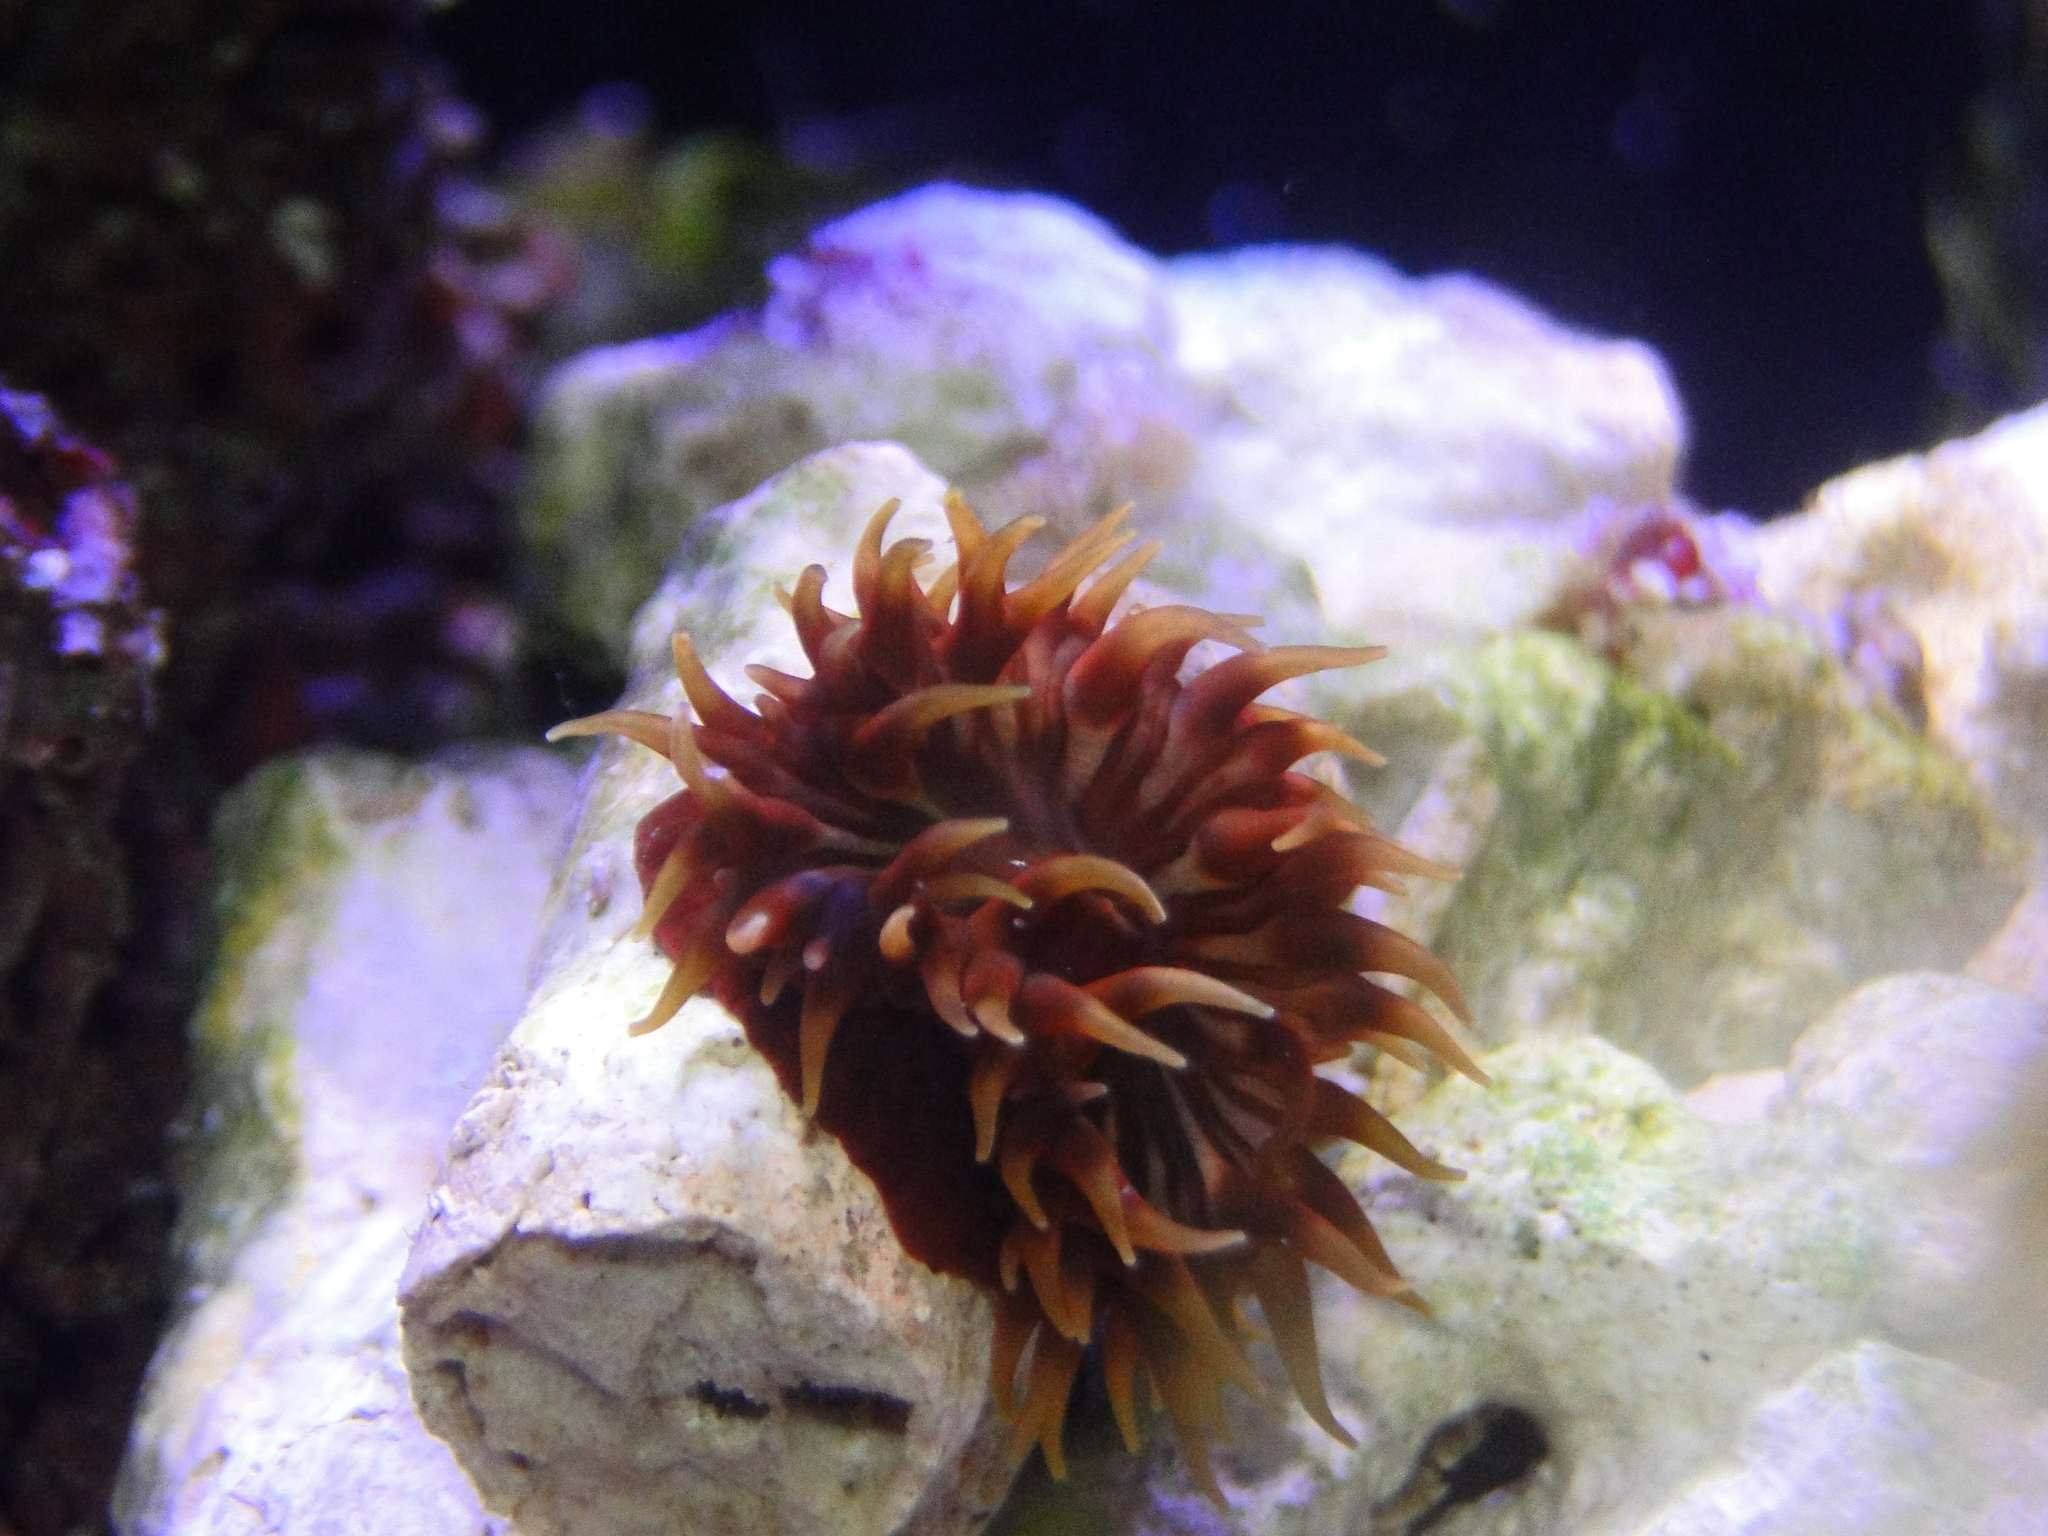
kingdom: Animalia
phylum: Cnidaria
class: Anthozoa
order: Actiniaria
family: Actiniidae
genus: Anemonia
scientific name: Anemonia erythraea
